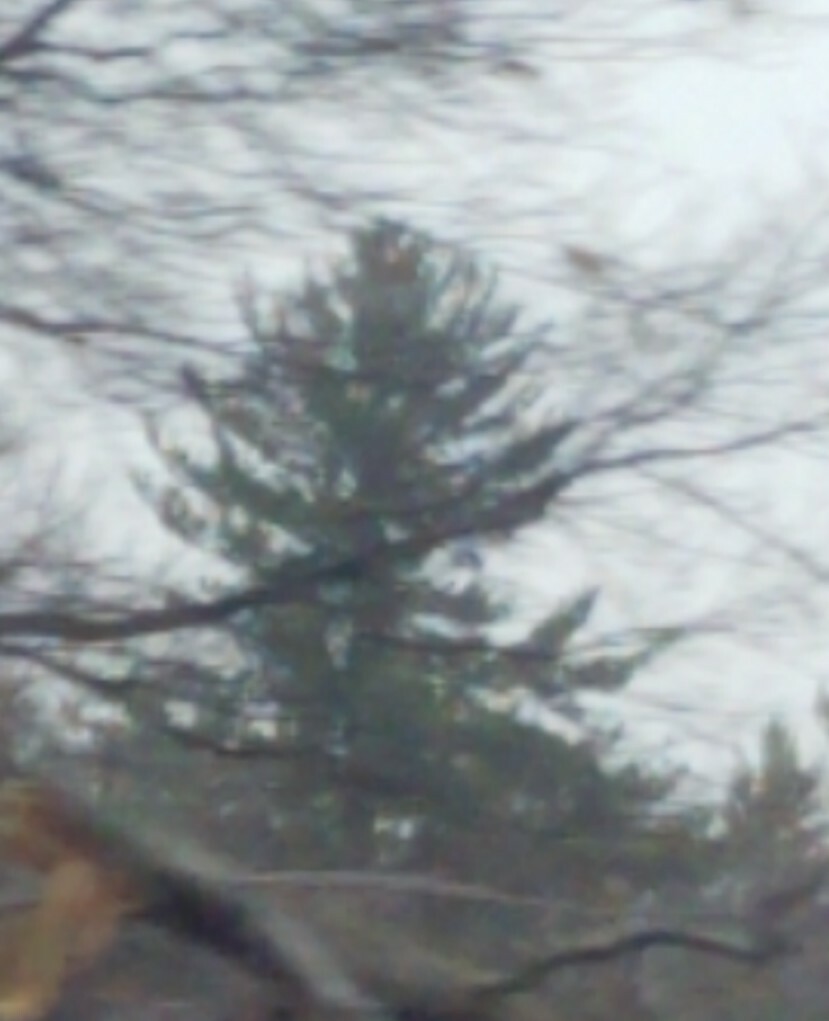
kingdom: Plantae
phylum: Tracheophyta
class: Pinopsida
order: Pinales
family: Pinaceae
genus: Pinus
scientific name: Pinus strobus
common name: Weymouth pine
